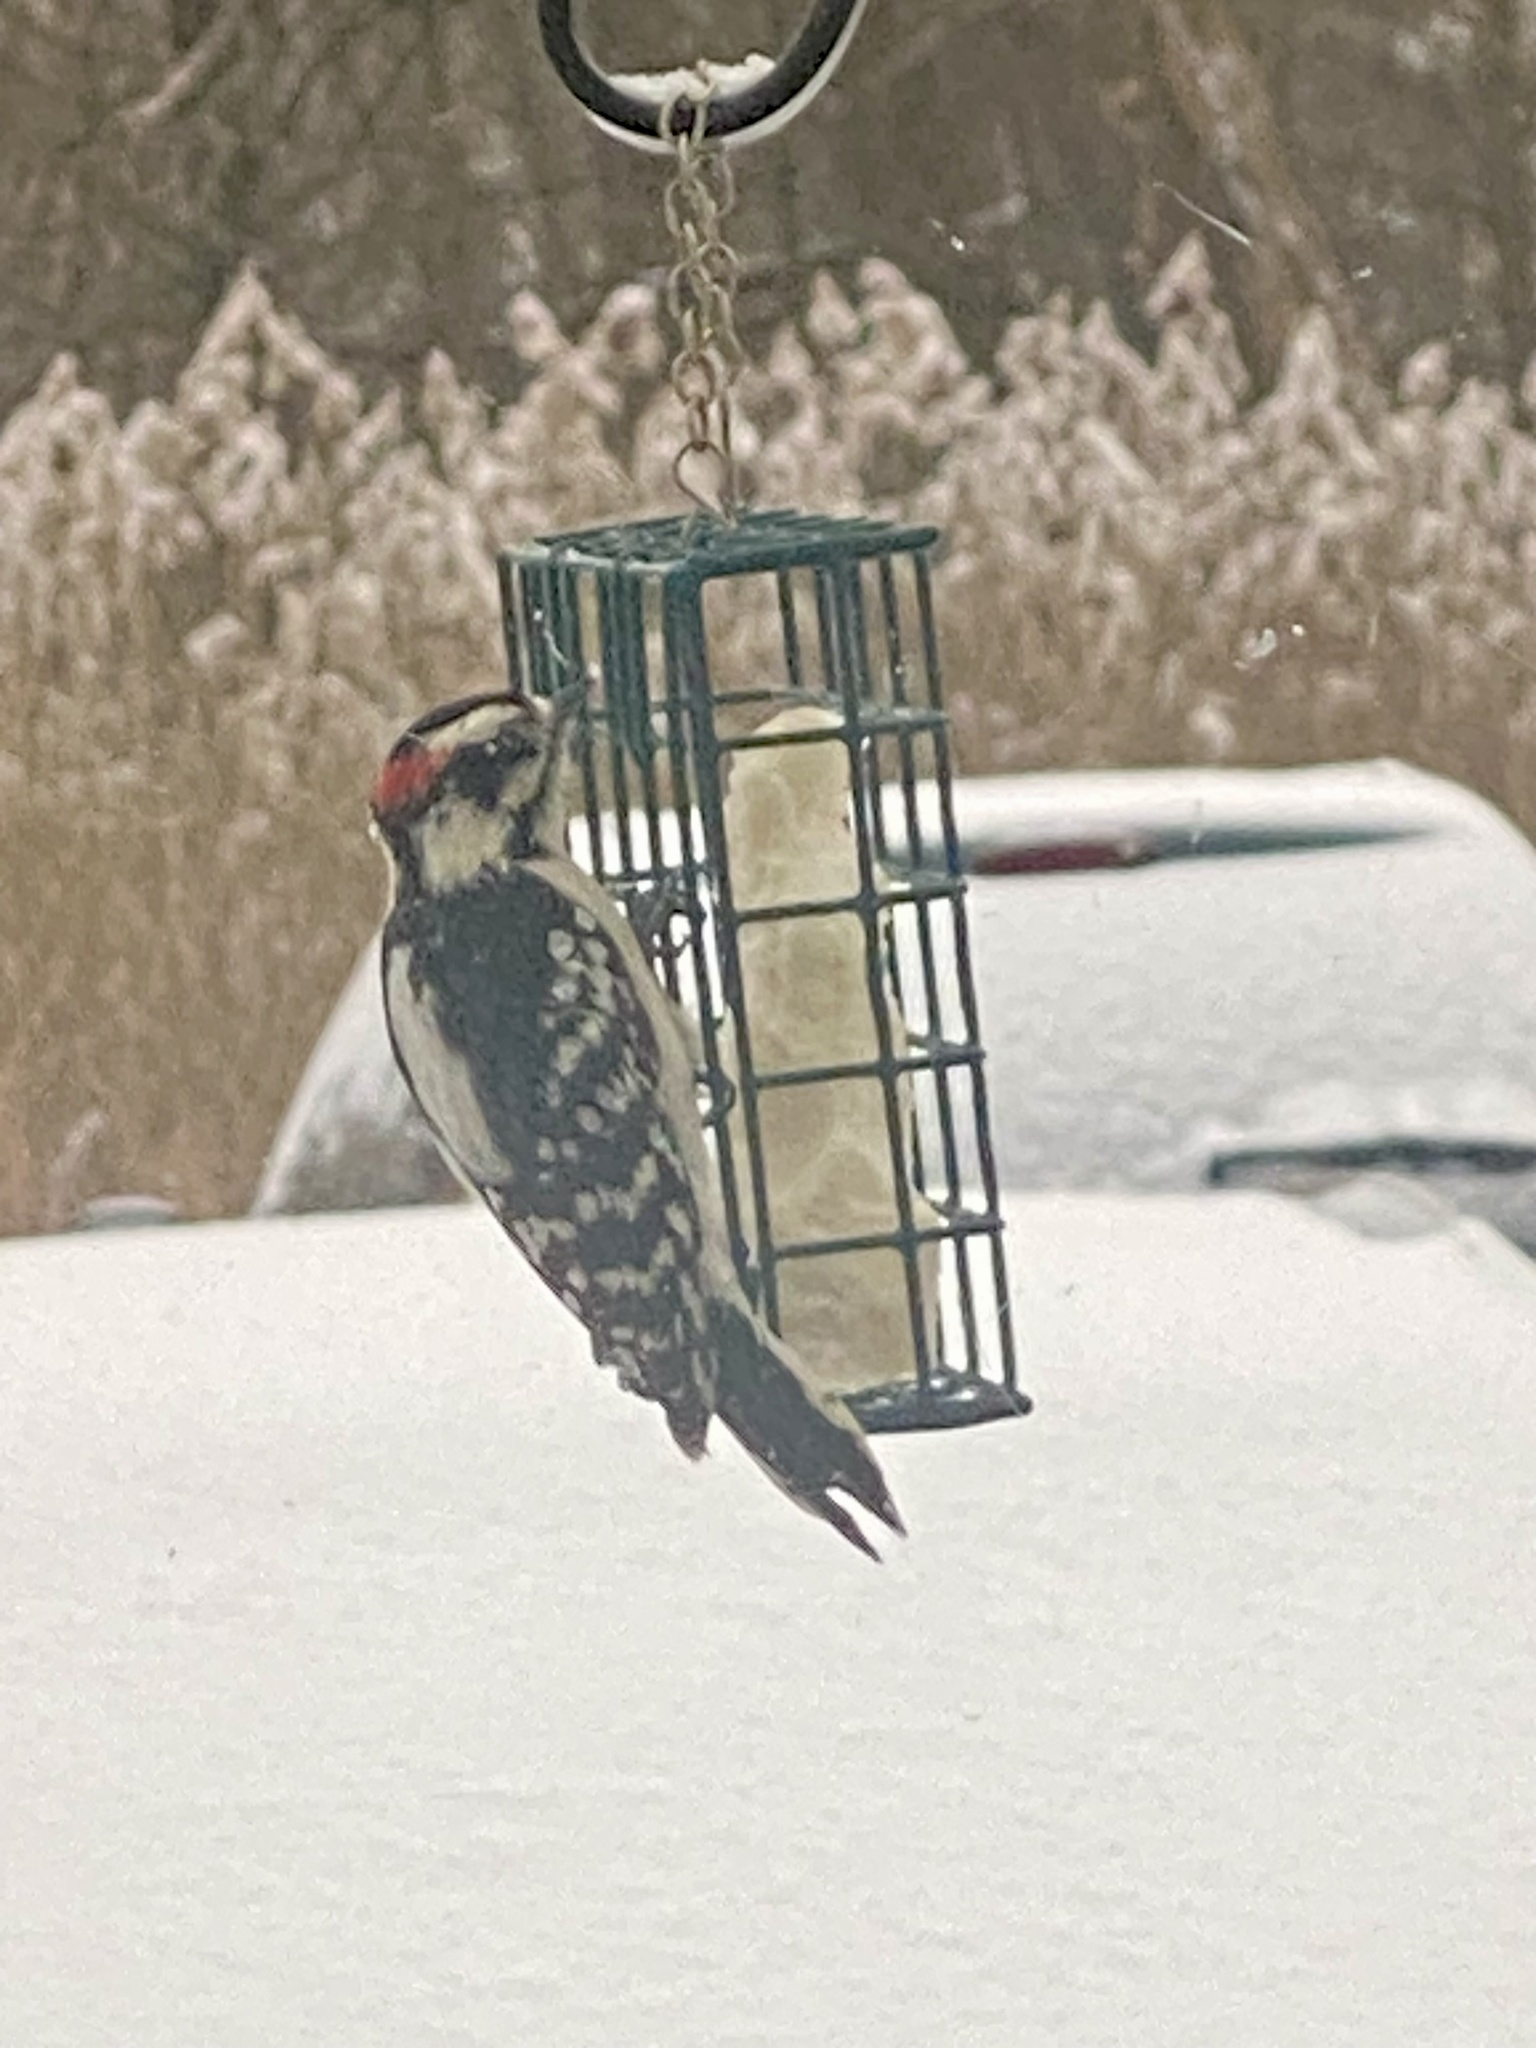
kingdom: Animalia
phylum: Chordata
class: Aves
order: Piciformes
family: Picidae
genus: Dryobates
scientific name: Dryobates pubescens
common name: Downy woodpecker
